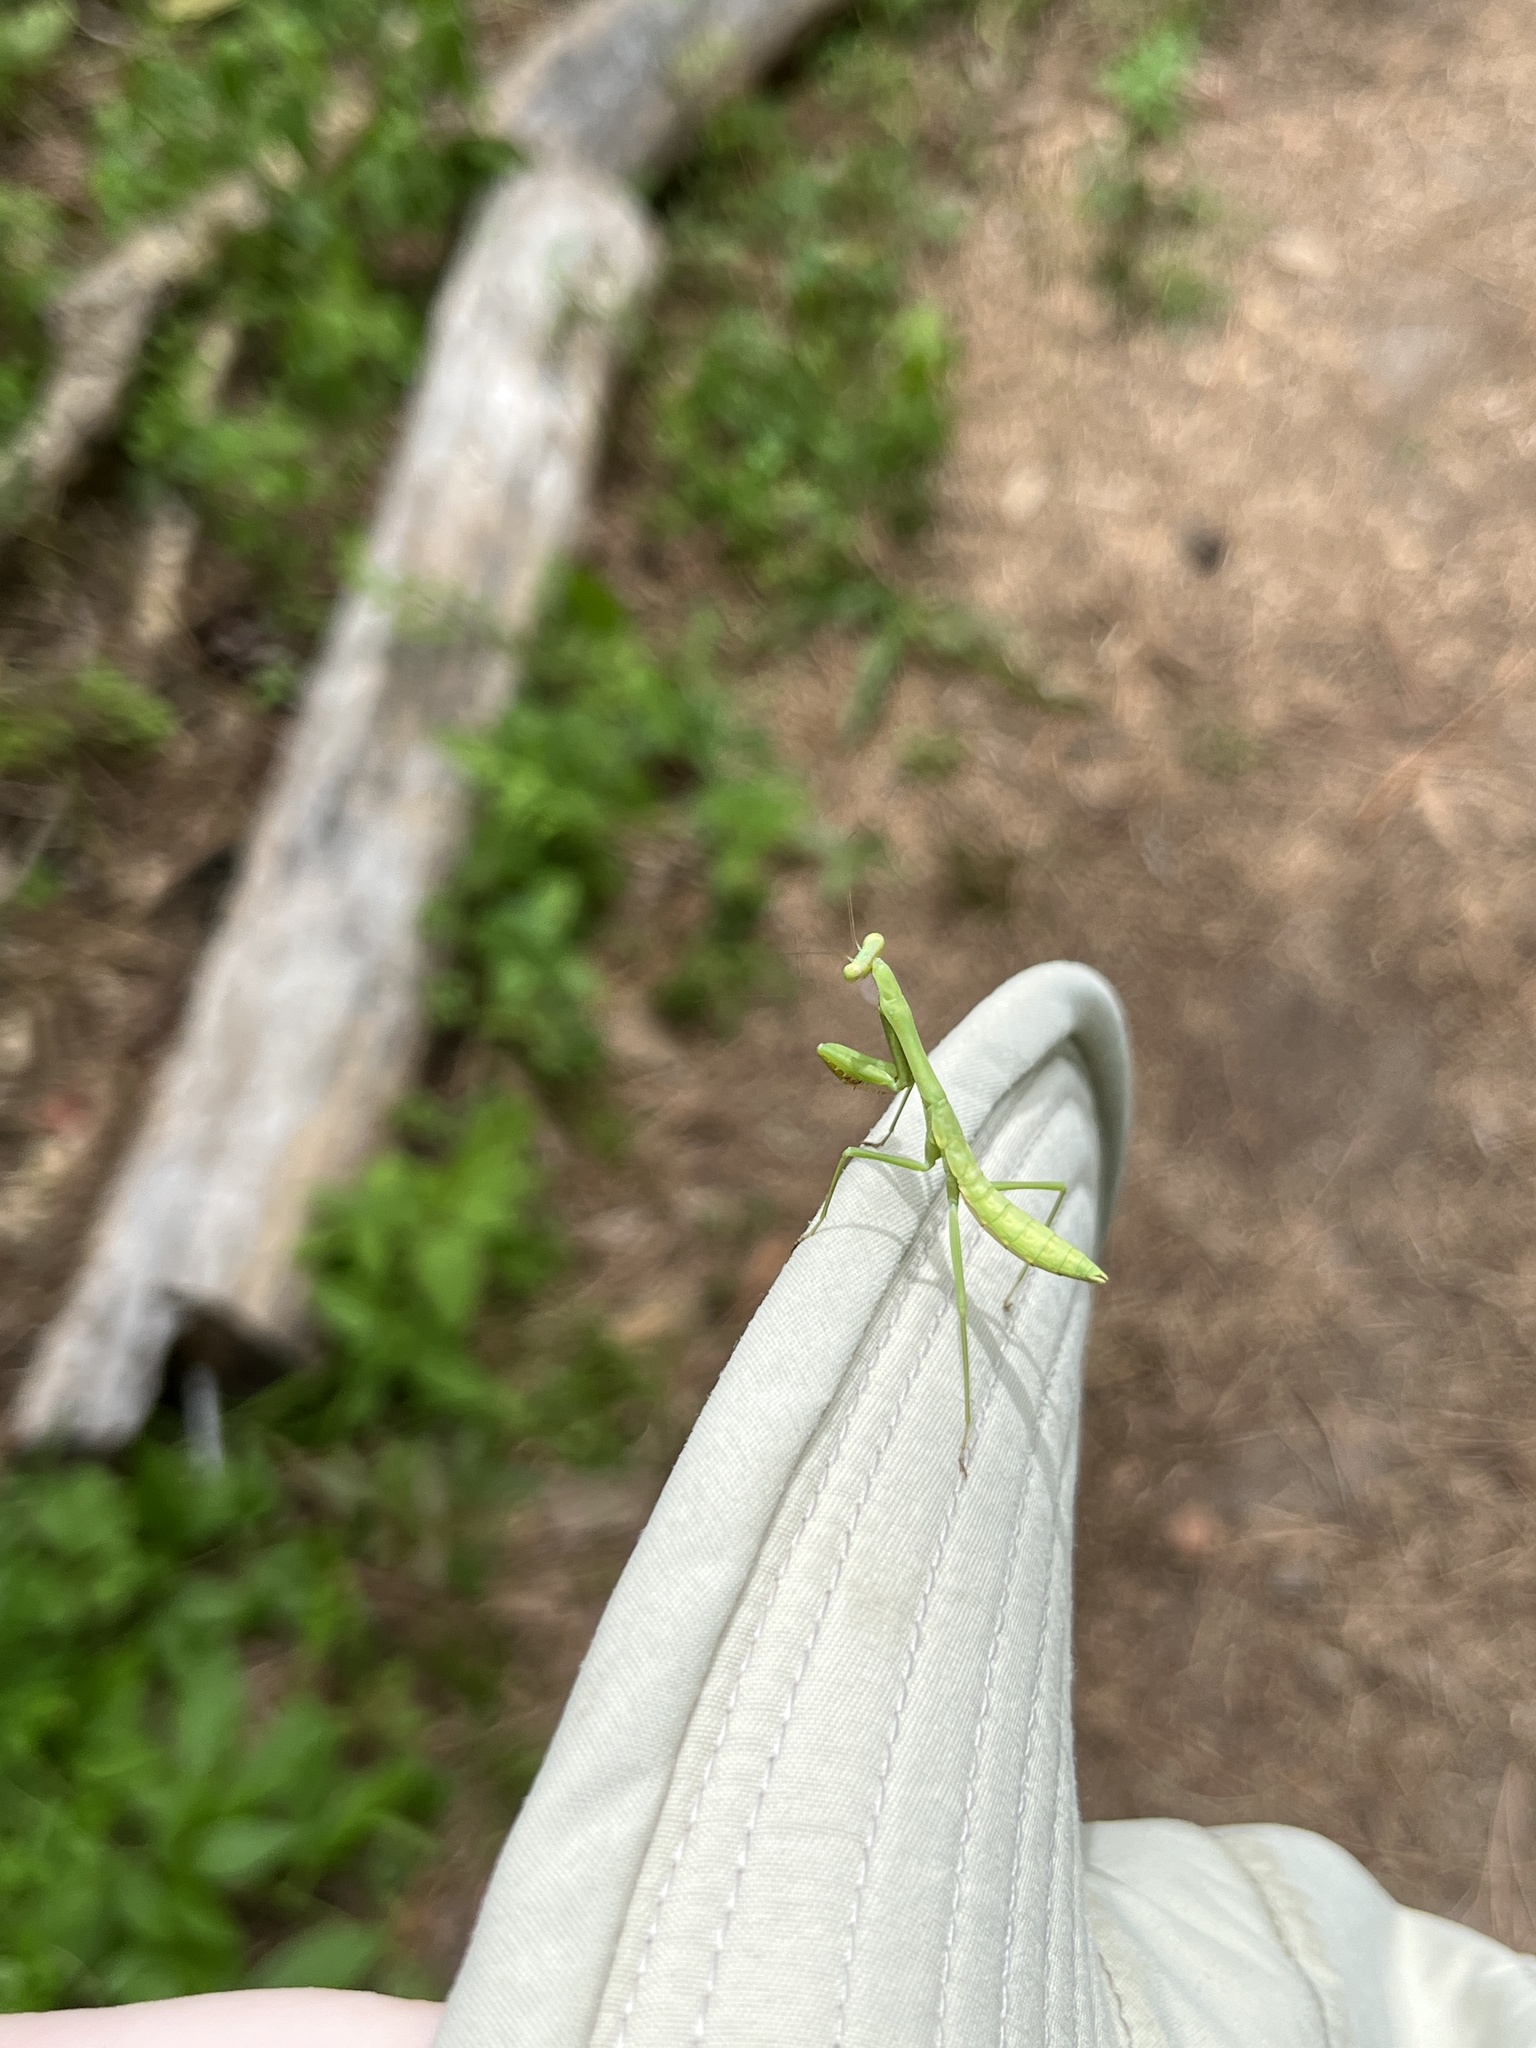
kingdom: Animalia
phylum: Arthropoda
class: Insecta
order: Mantodea
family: Mantidae
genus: Stagmomantis
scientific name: Stagmomantis carolina
